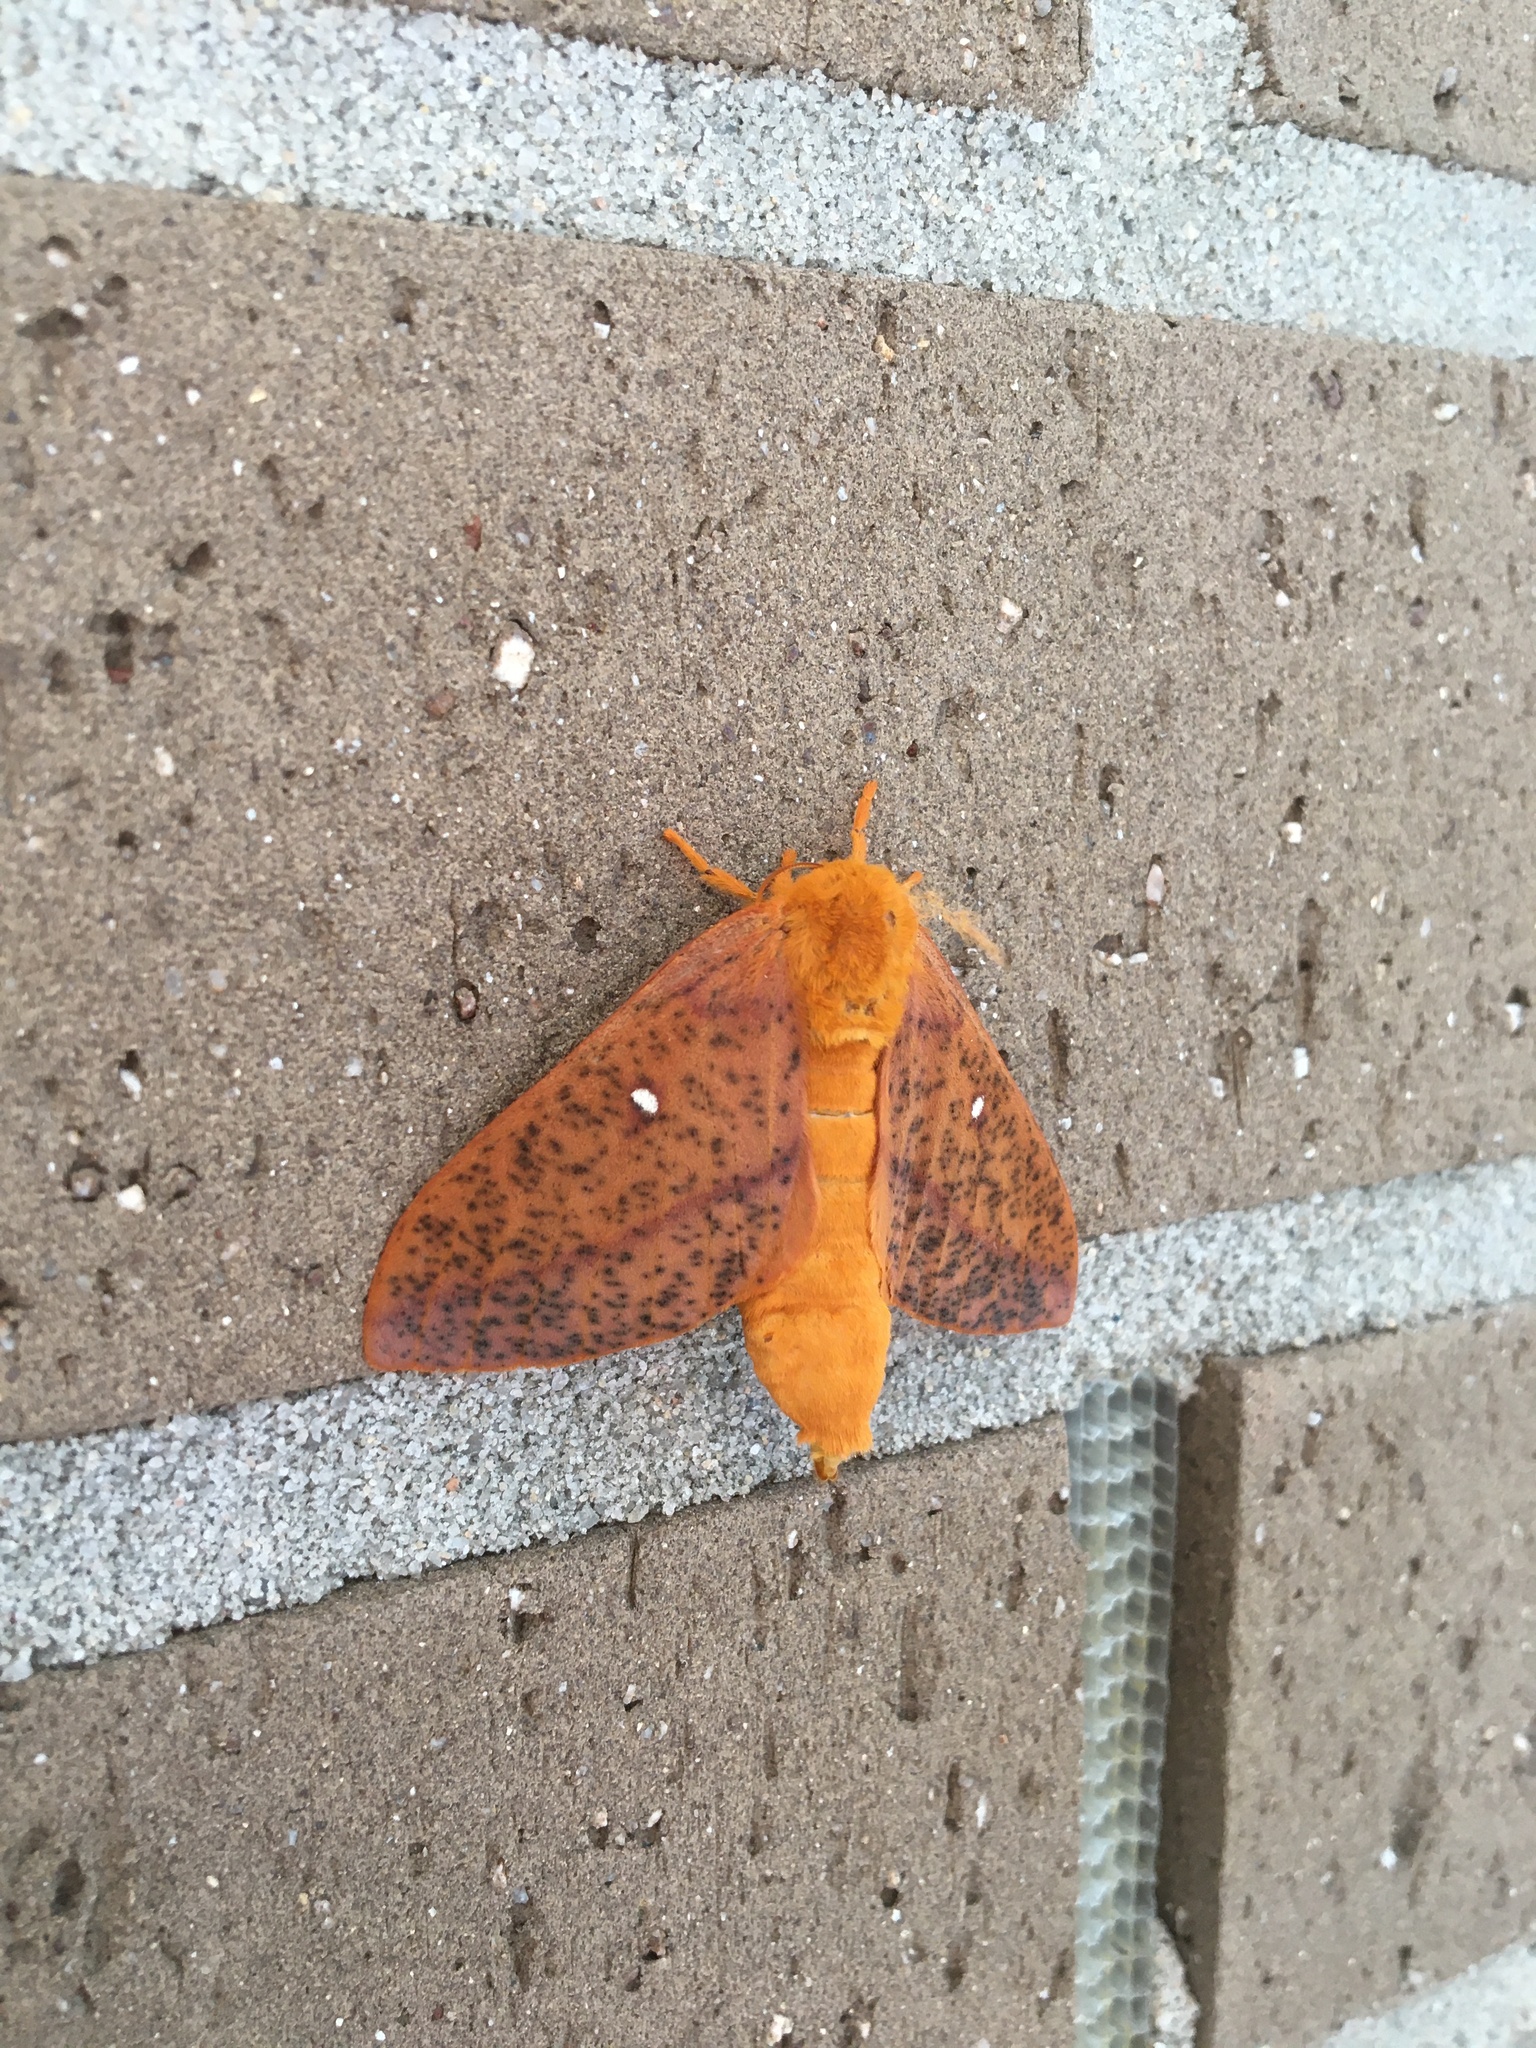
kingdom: Animalia
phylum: Arthropoda
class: Insecta
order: Lepidoptera
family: Saturniidae
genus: Anisota
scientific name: Anisota stigma
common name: Spiny oakworm moth
